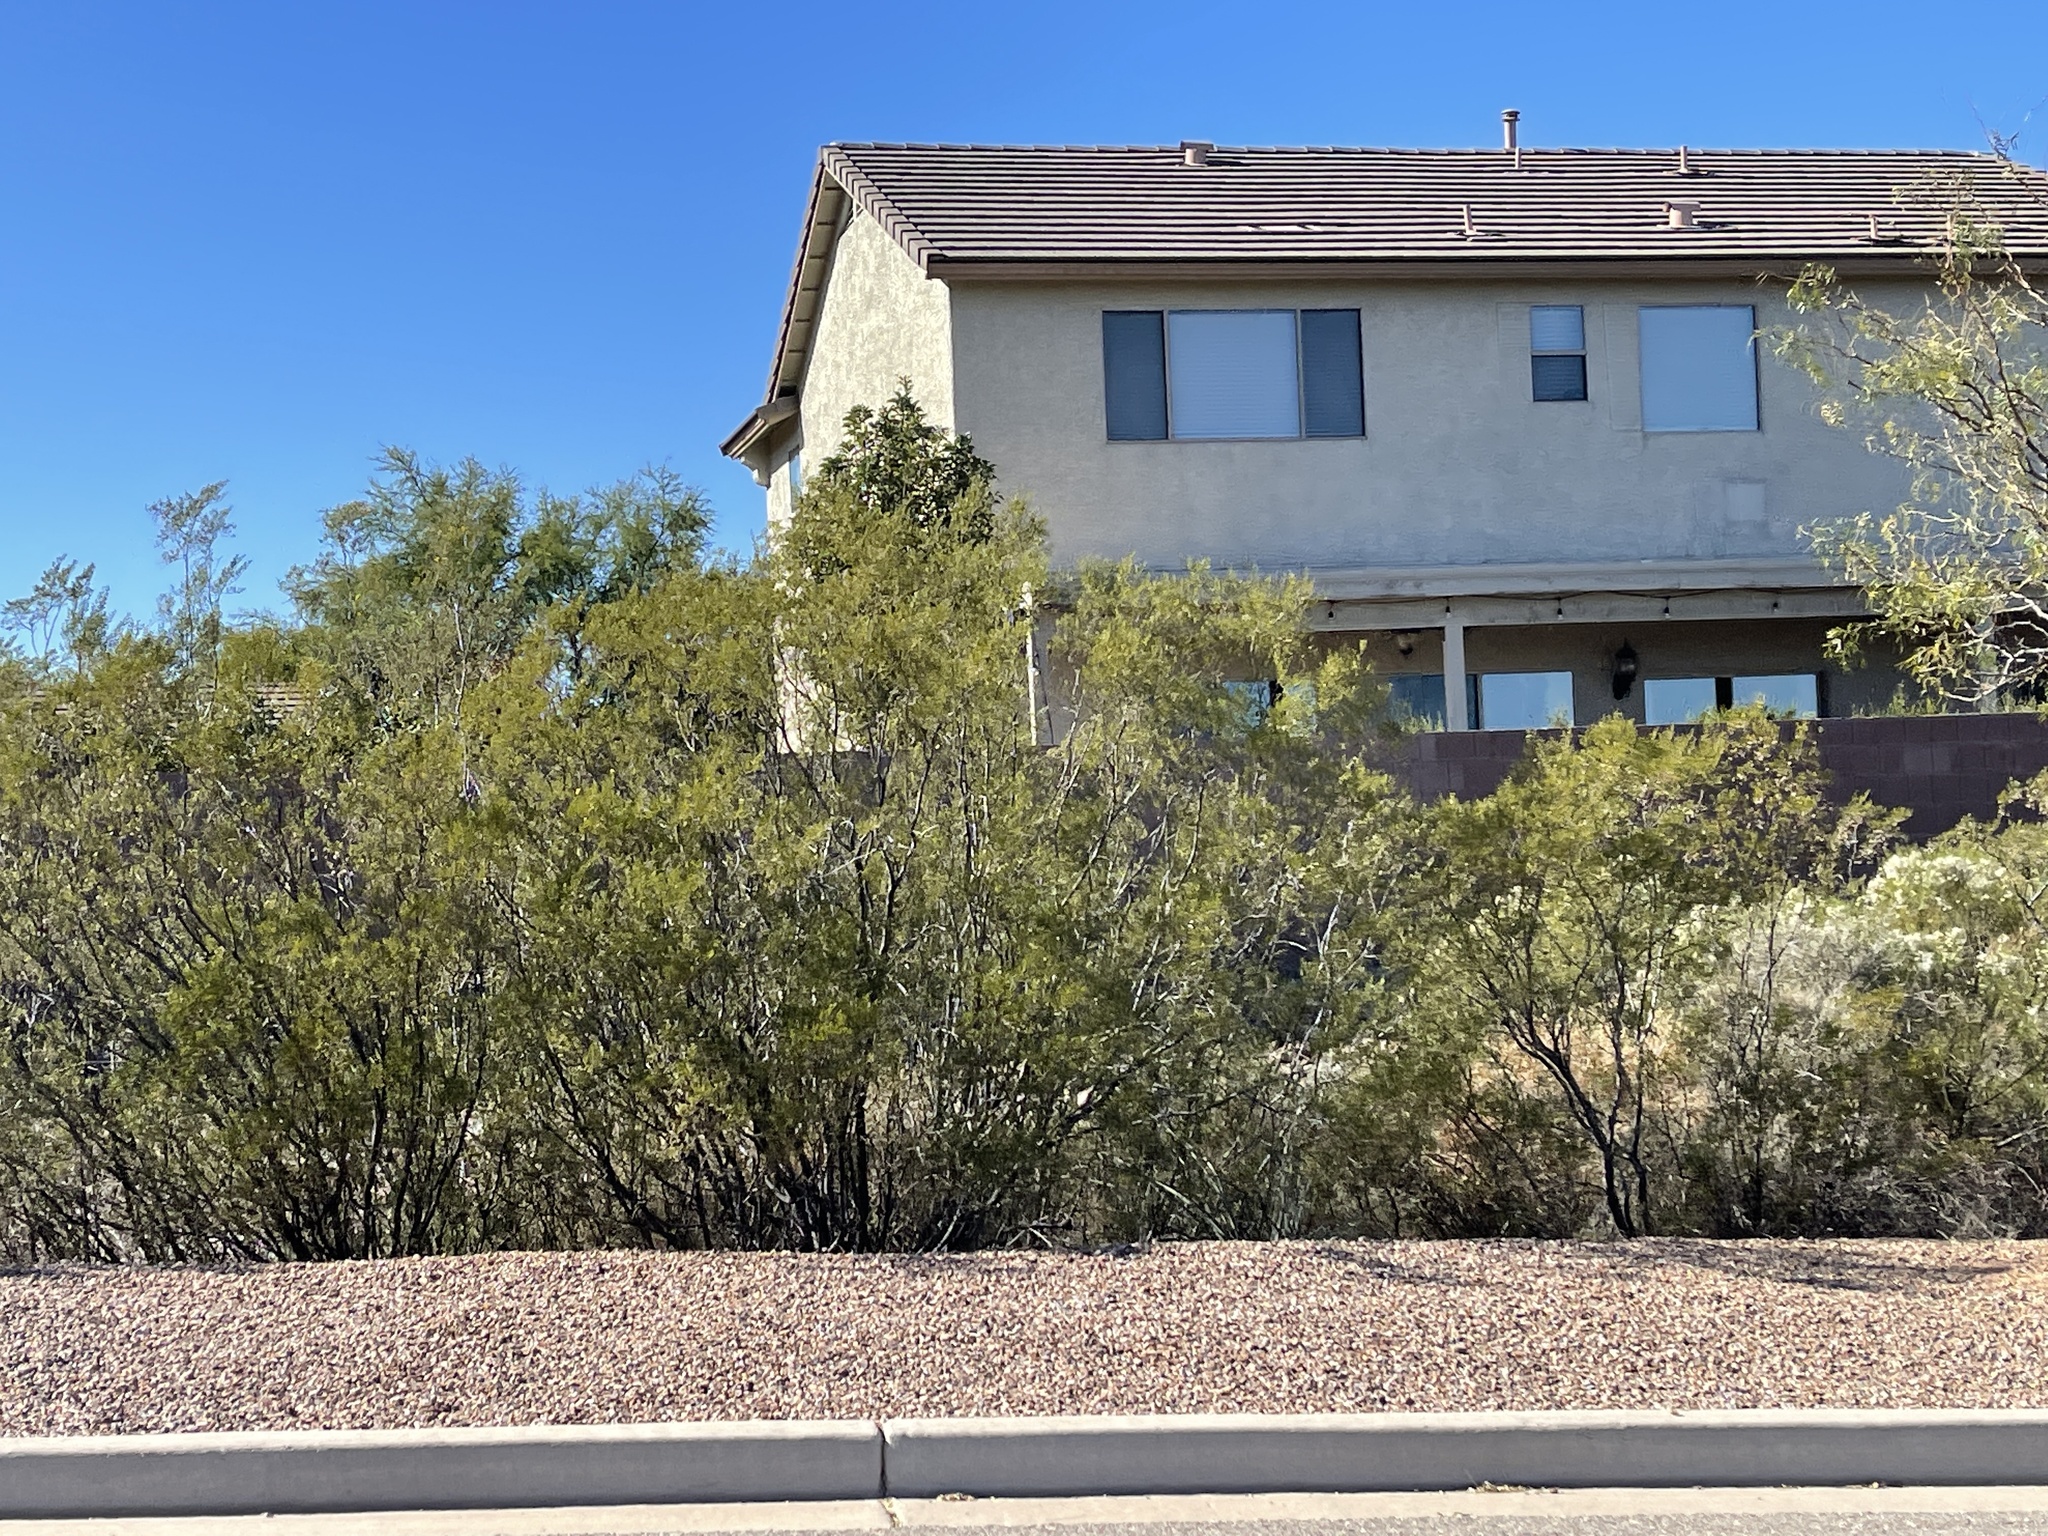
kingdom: Plantae
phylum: Tracheophyta
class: Magnoliopsida
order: Zygophyllales
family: Zygophyllaceae
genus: Larrea
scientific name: Larrea tridentata
